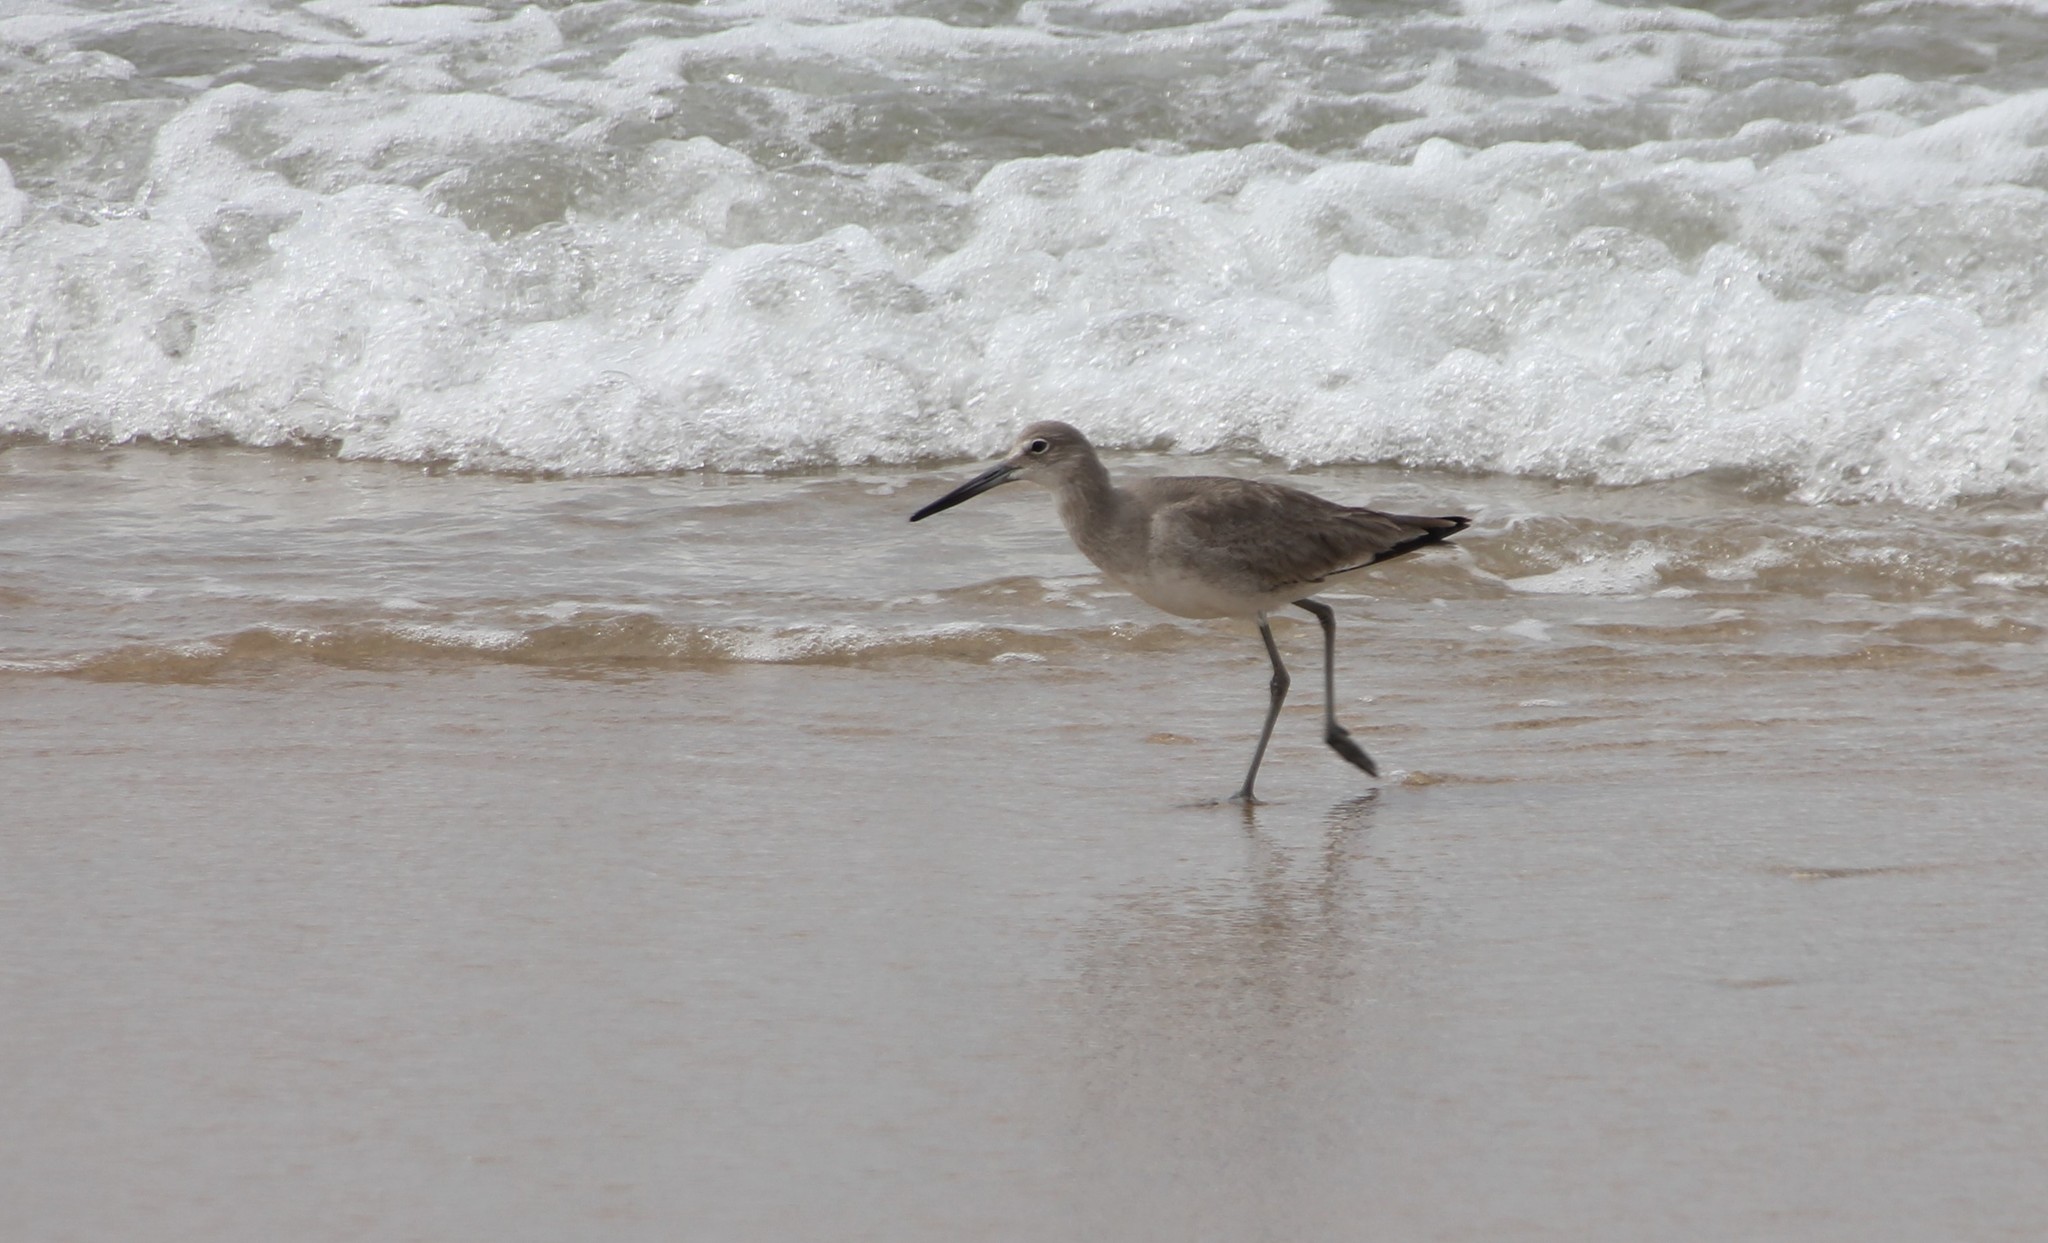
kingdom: Animalia
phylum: Chordata
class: Aves
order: Charadriiformes
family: Scolopacidae
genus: Tringa
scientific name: Tringa semipalmata
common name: Willet
